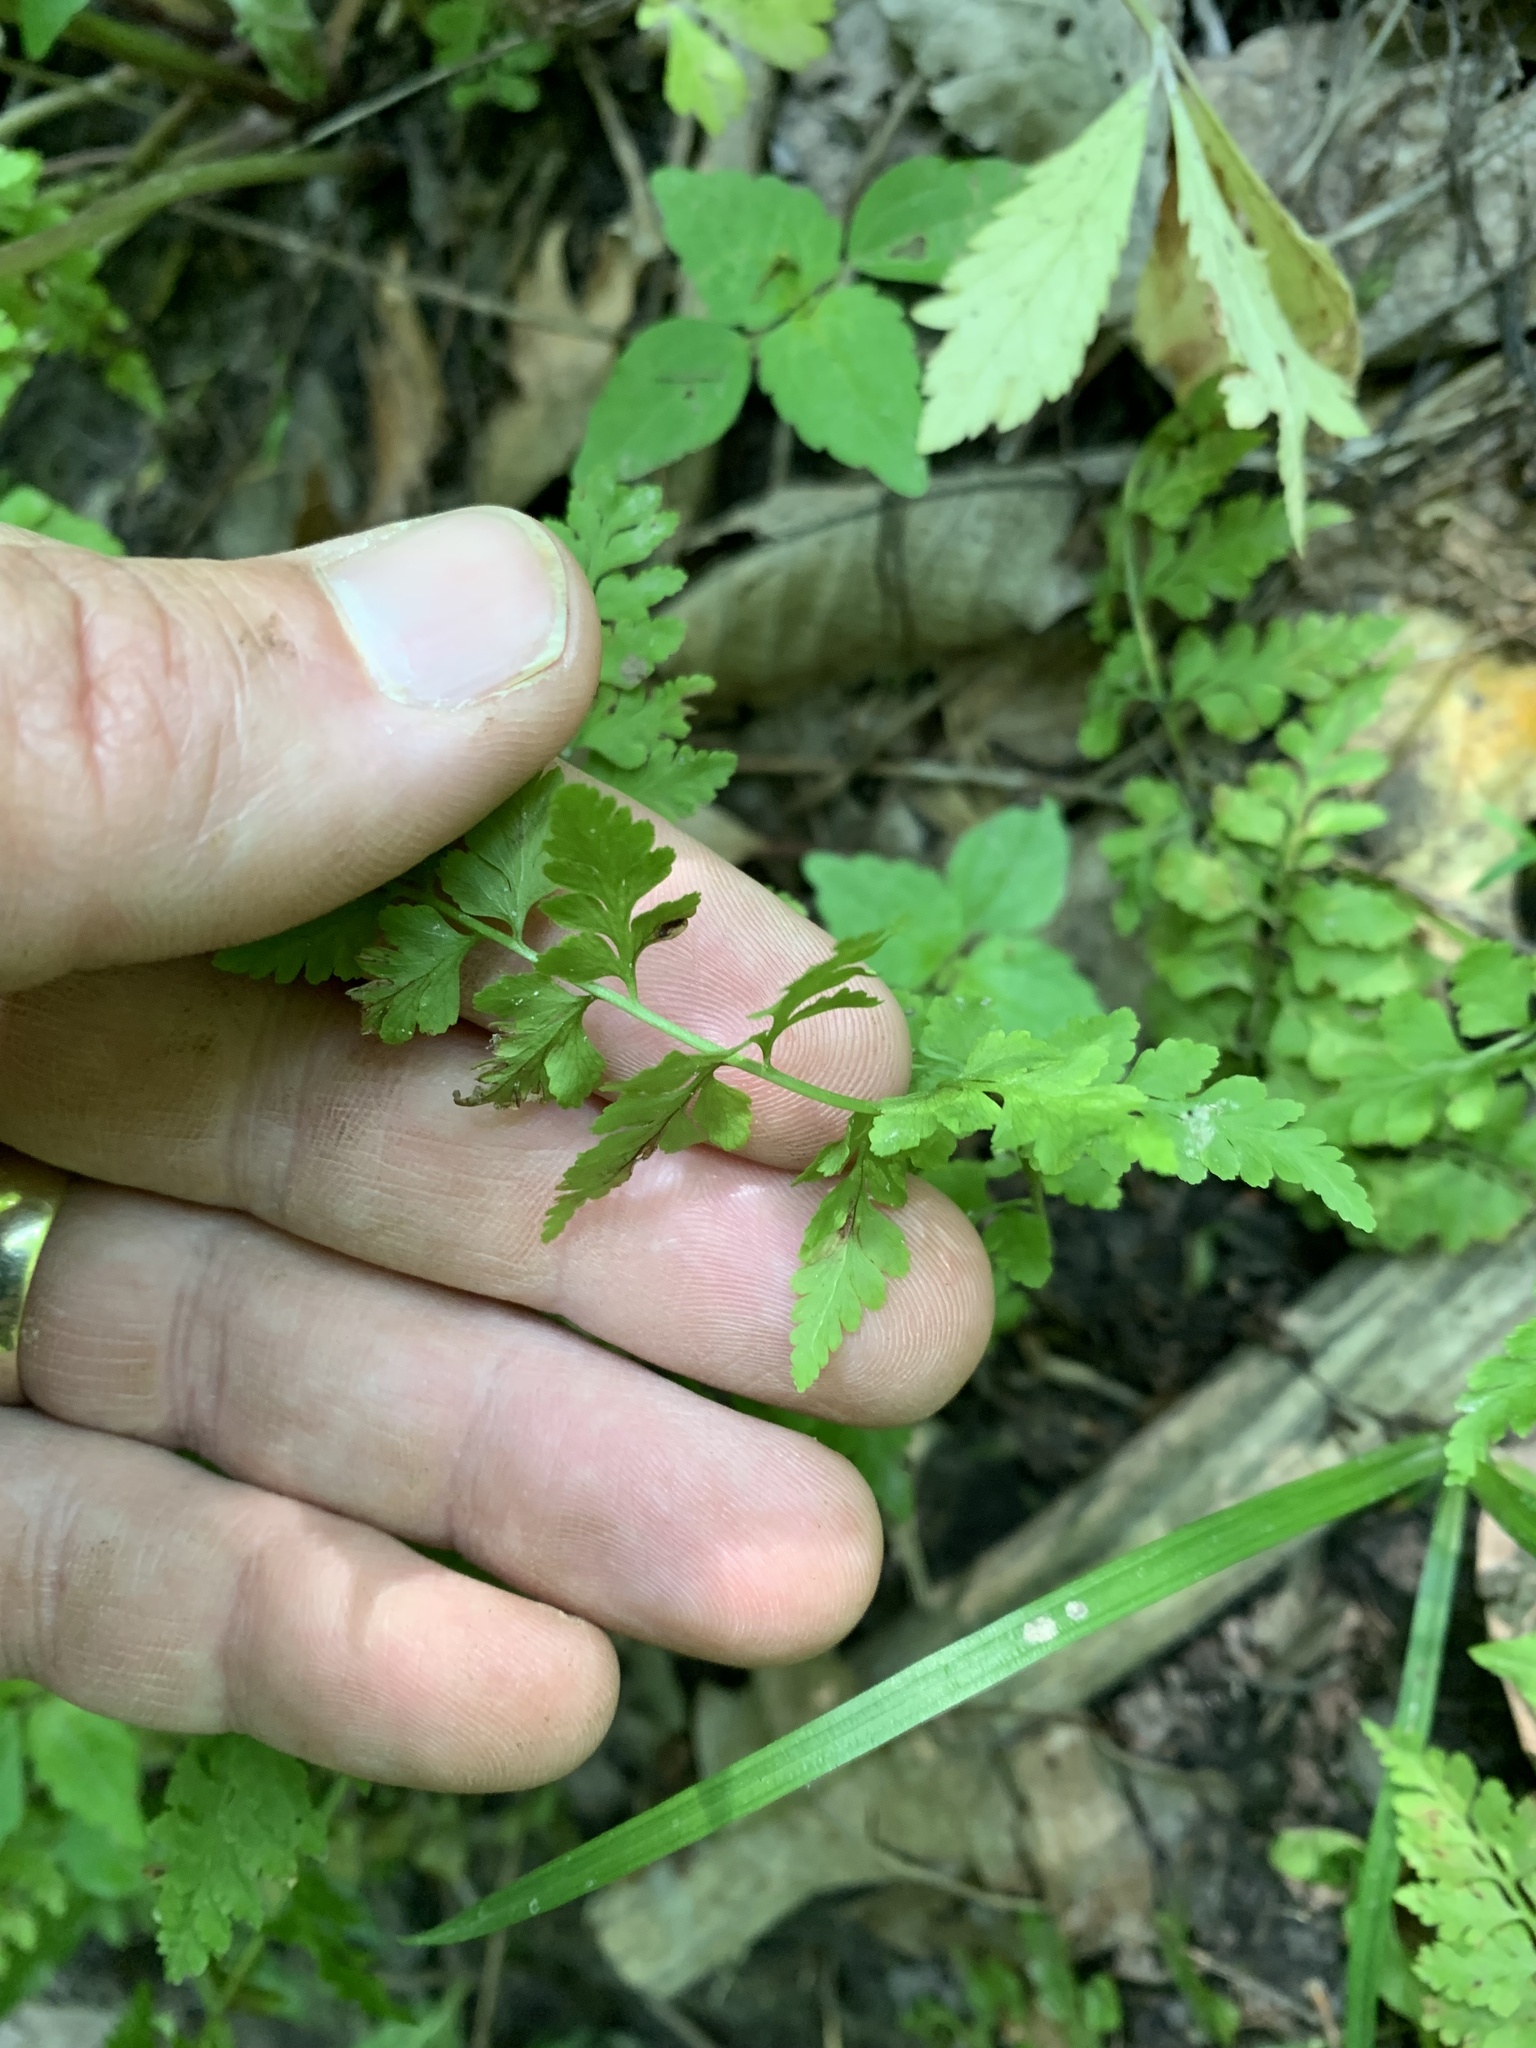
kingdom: Plantae
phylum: Tracheophyta
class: Polypodiopsida
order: Polypodiales
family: Cystopteridaceae
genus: Cystopteris
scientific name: Cystopteris protrusa
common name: Lowland brittle fern
